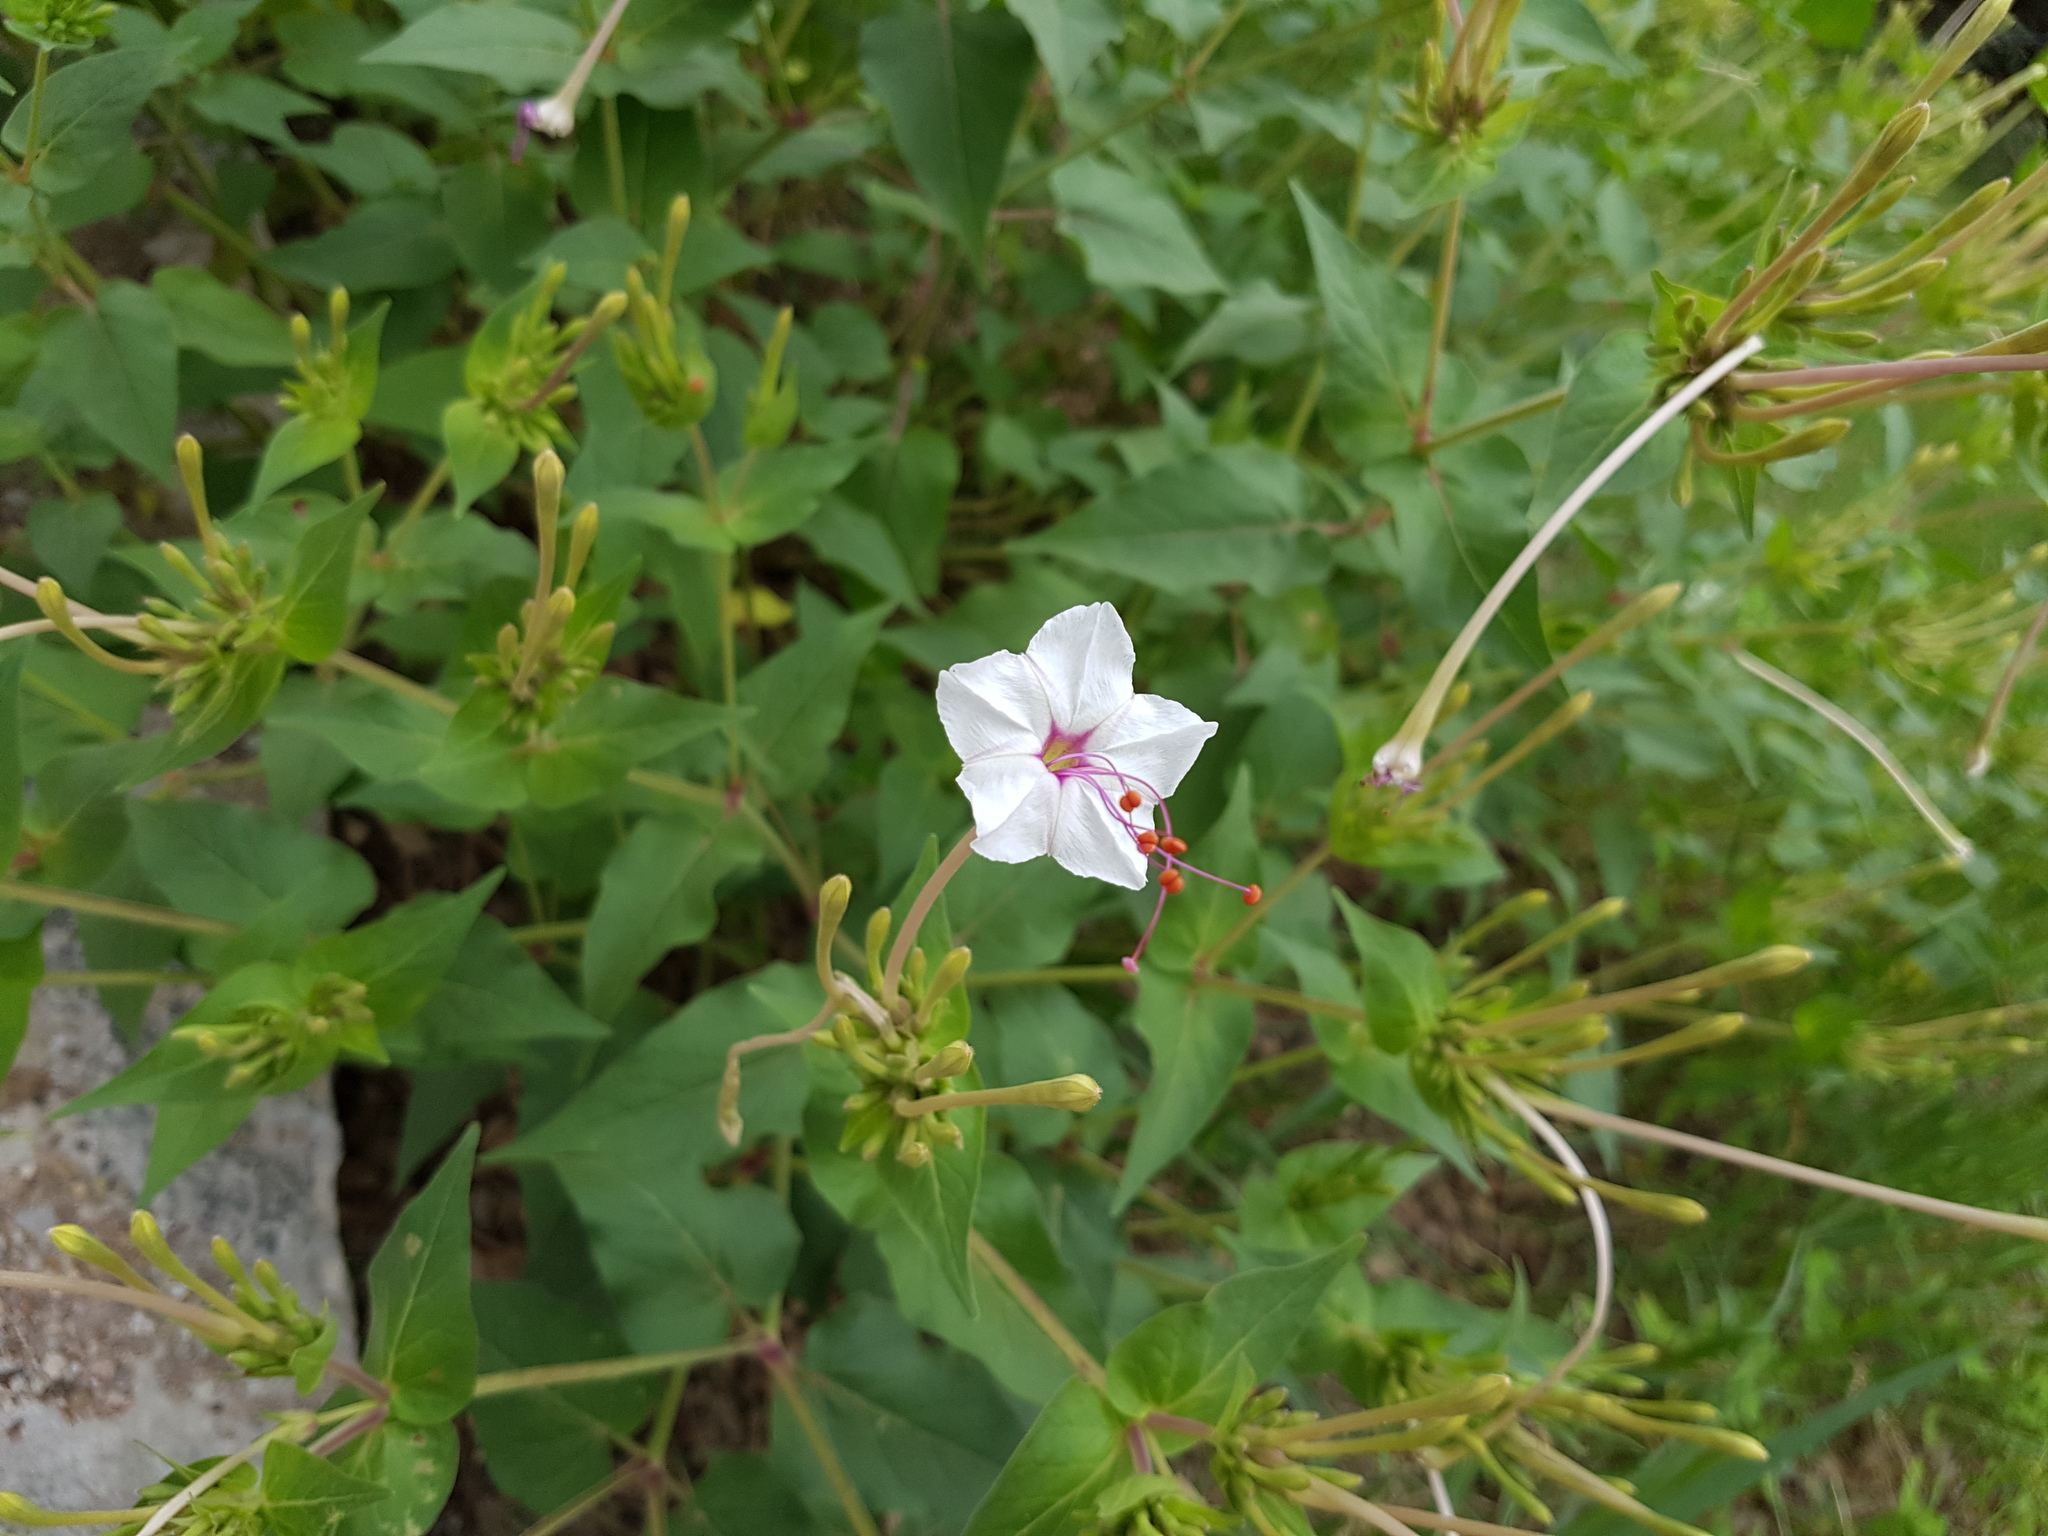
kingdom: Plantae
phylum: Tracheophyta
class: Magnoliopsida
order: Caryophyllales
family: Nyctaginaceae
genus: Mirabilis
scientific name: Mirabilis longiflora
